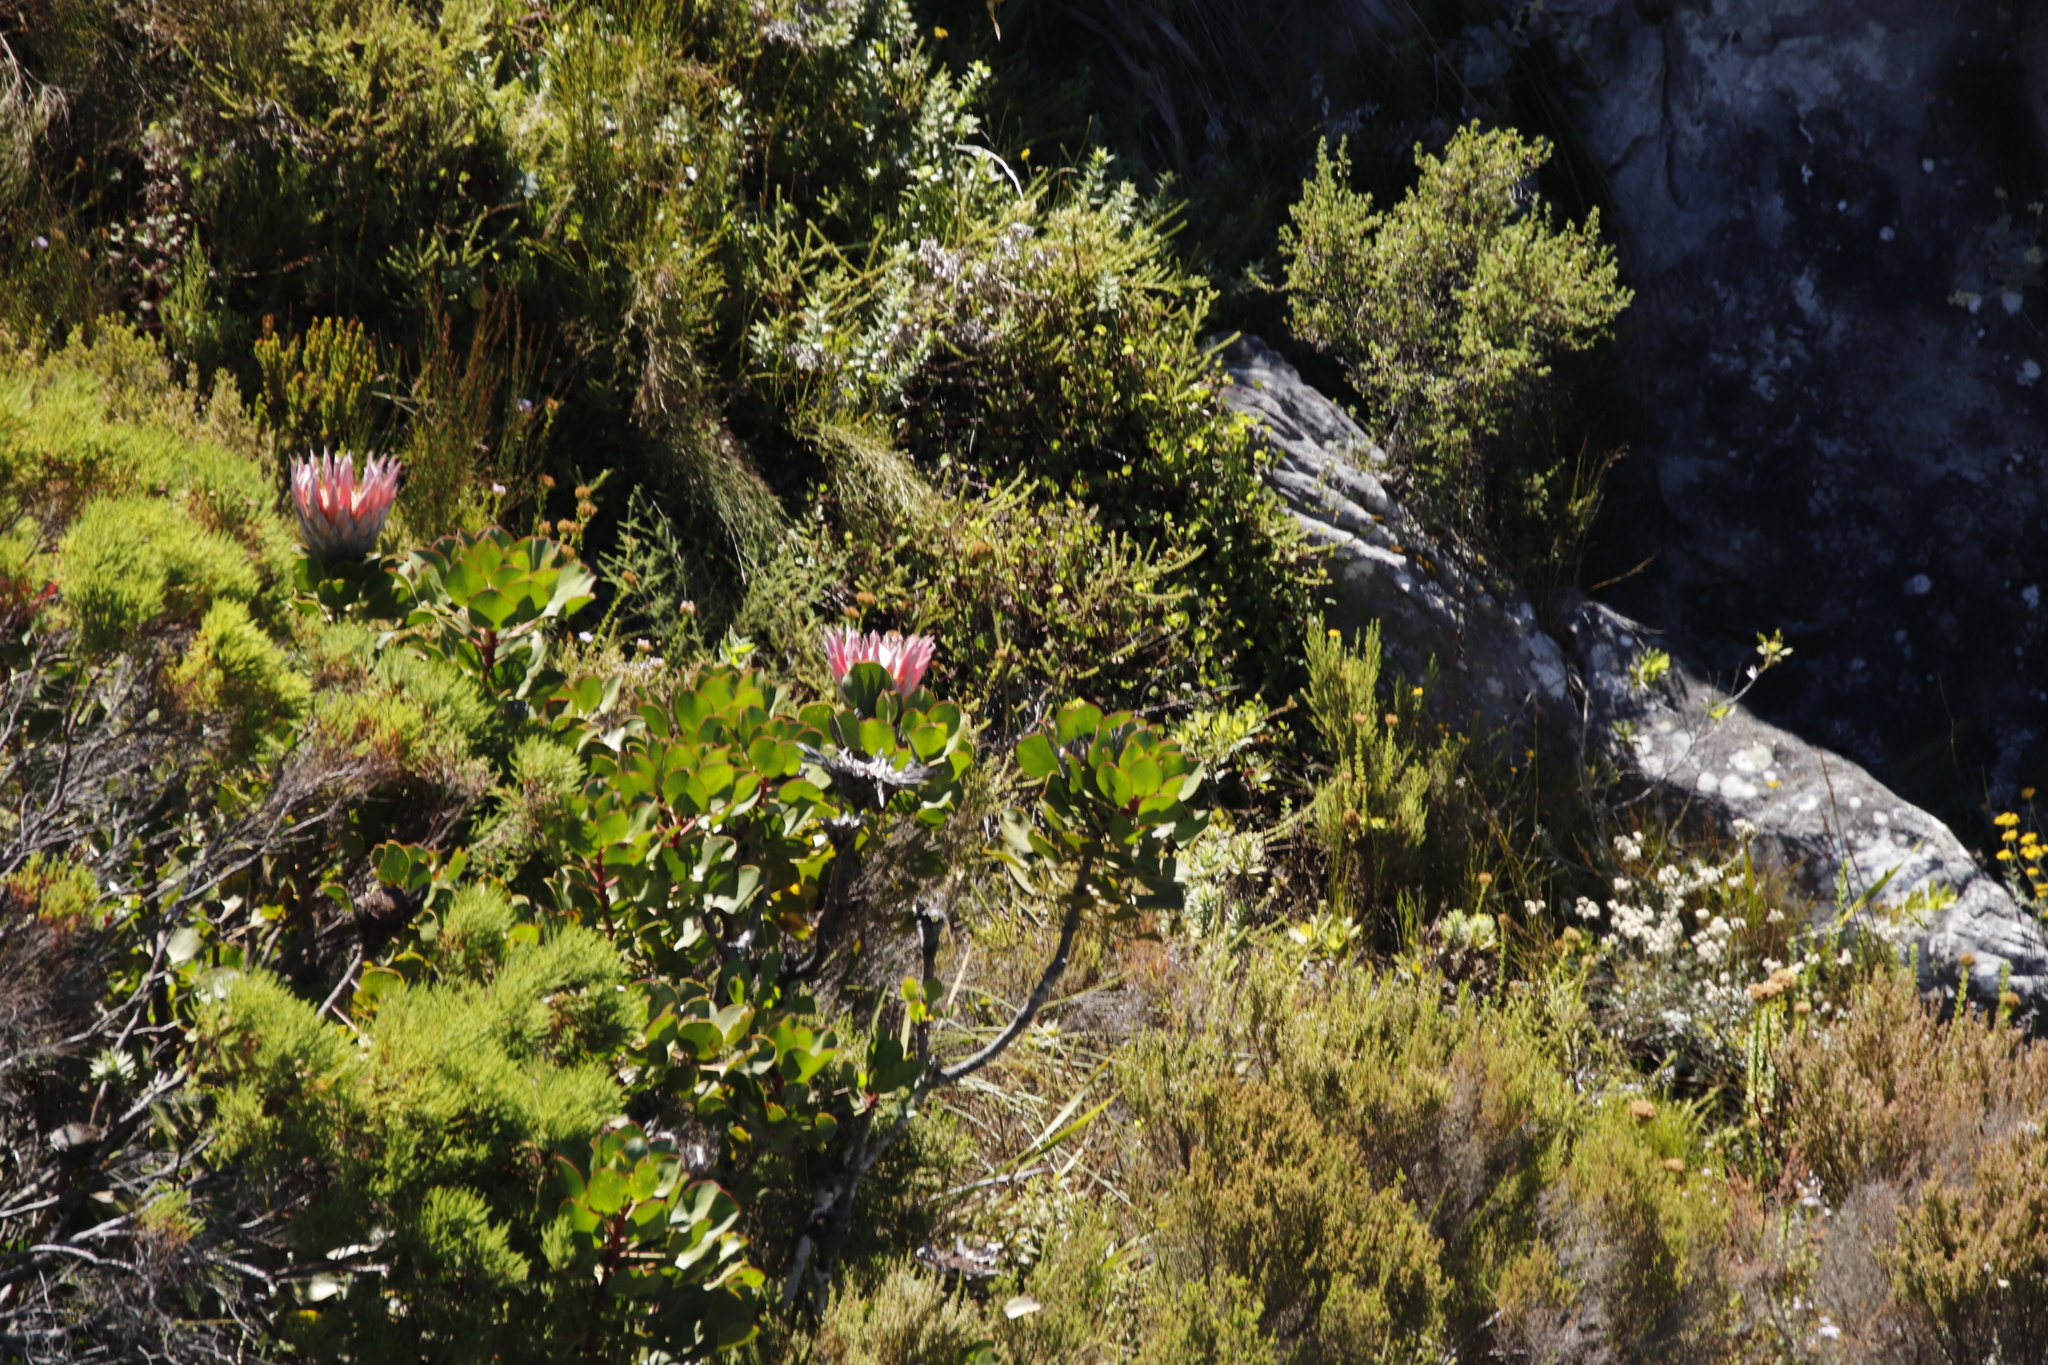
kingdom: Plantae
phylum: Tracheophyta
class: Magnoliopsida
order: Proteales
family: Proteaceae
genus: Protea
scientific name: Protea cynaroides
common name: King protea
